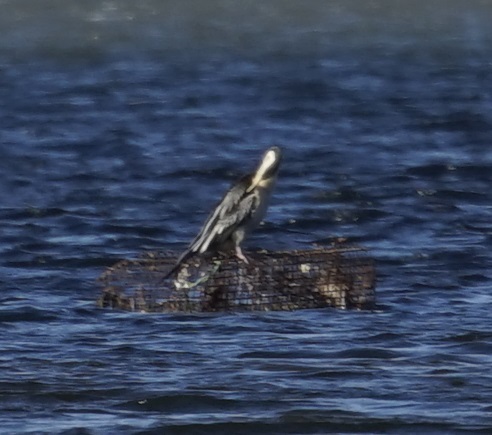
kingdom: Animalia
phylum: Chordata
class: Aves
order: Suliformes
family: Anhingidae
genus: Anhinga
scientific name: Anhinga novaehollandiae
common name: Australasian darter
